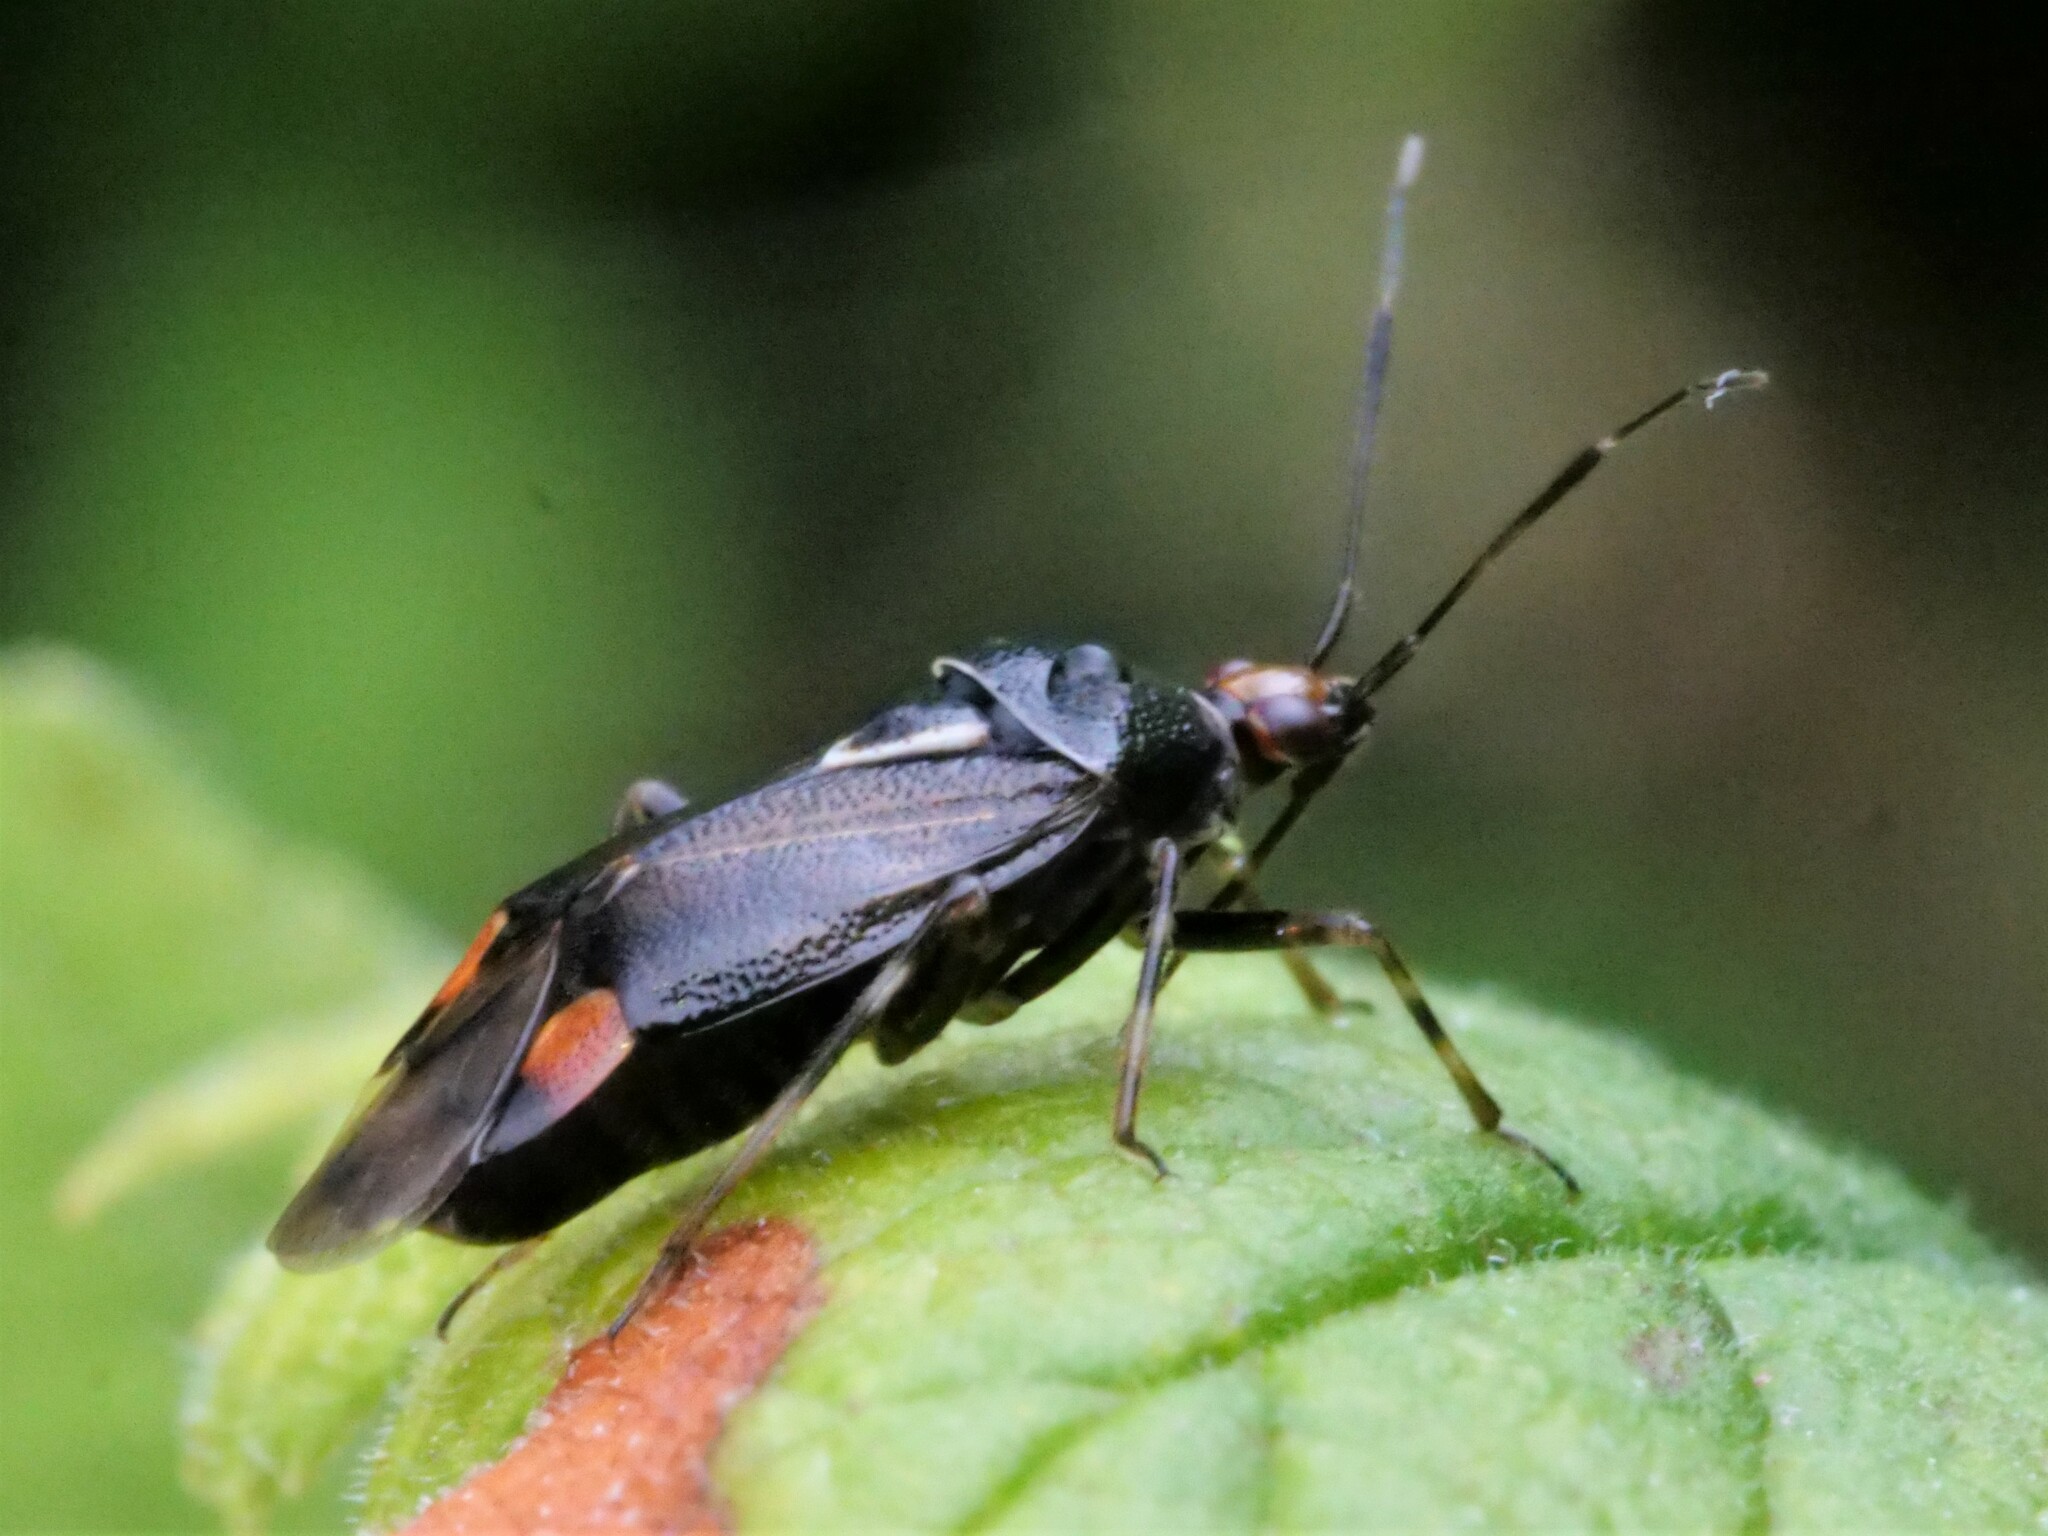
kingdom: Animalia
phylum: Arthropoda
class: Insecta
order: Hemiptera
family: Miridae
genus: Deraeocoris
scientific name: Deraeocoris ruber
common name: Plant bug
